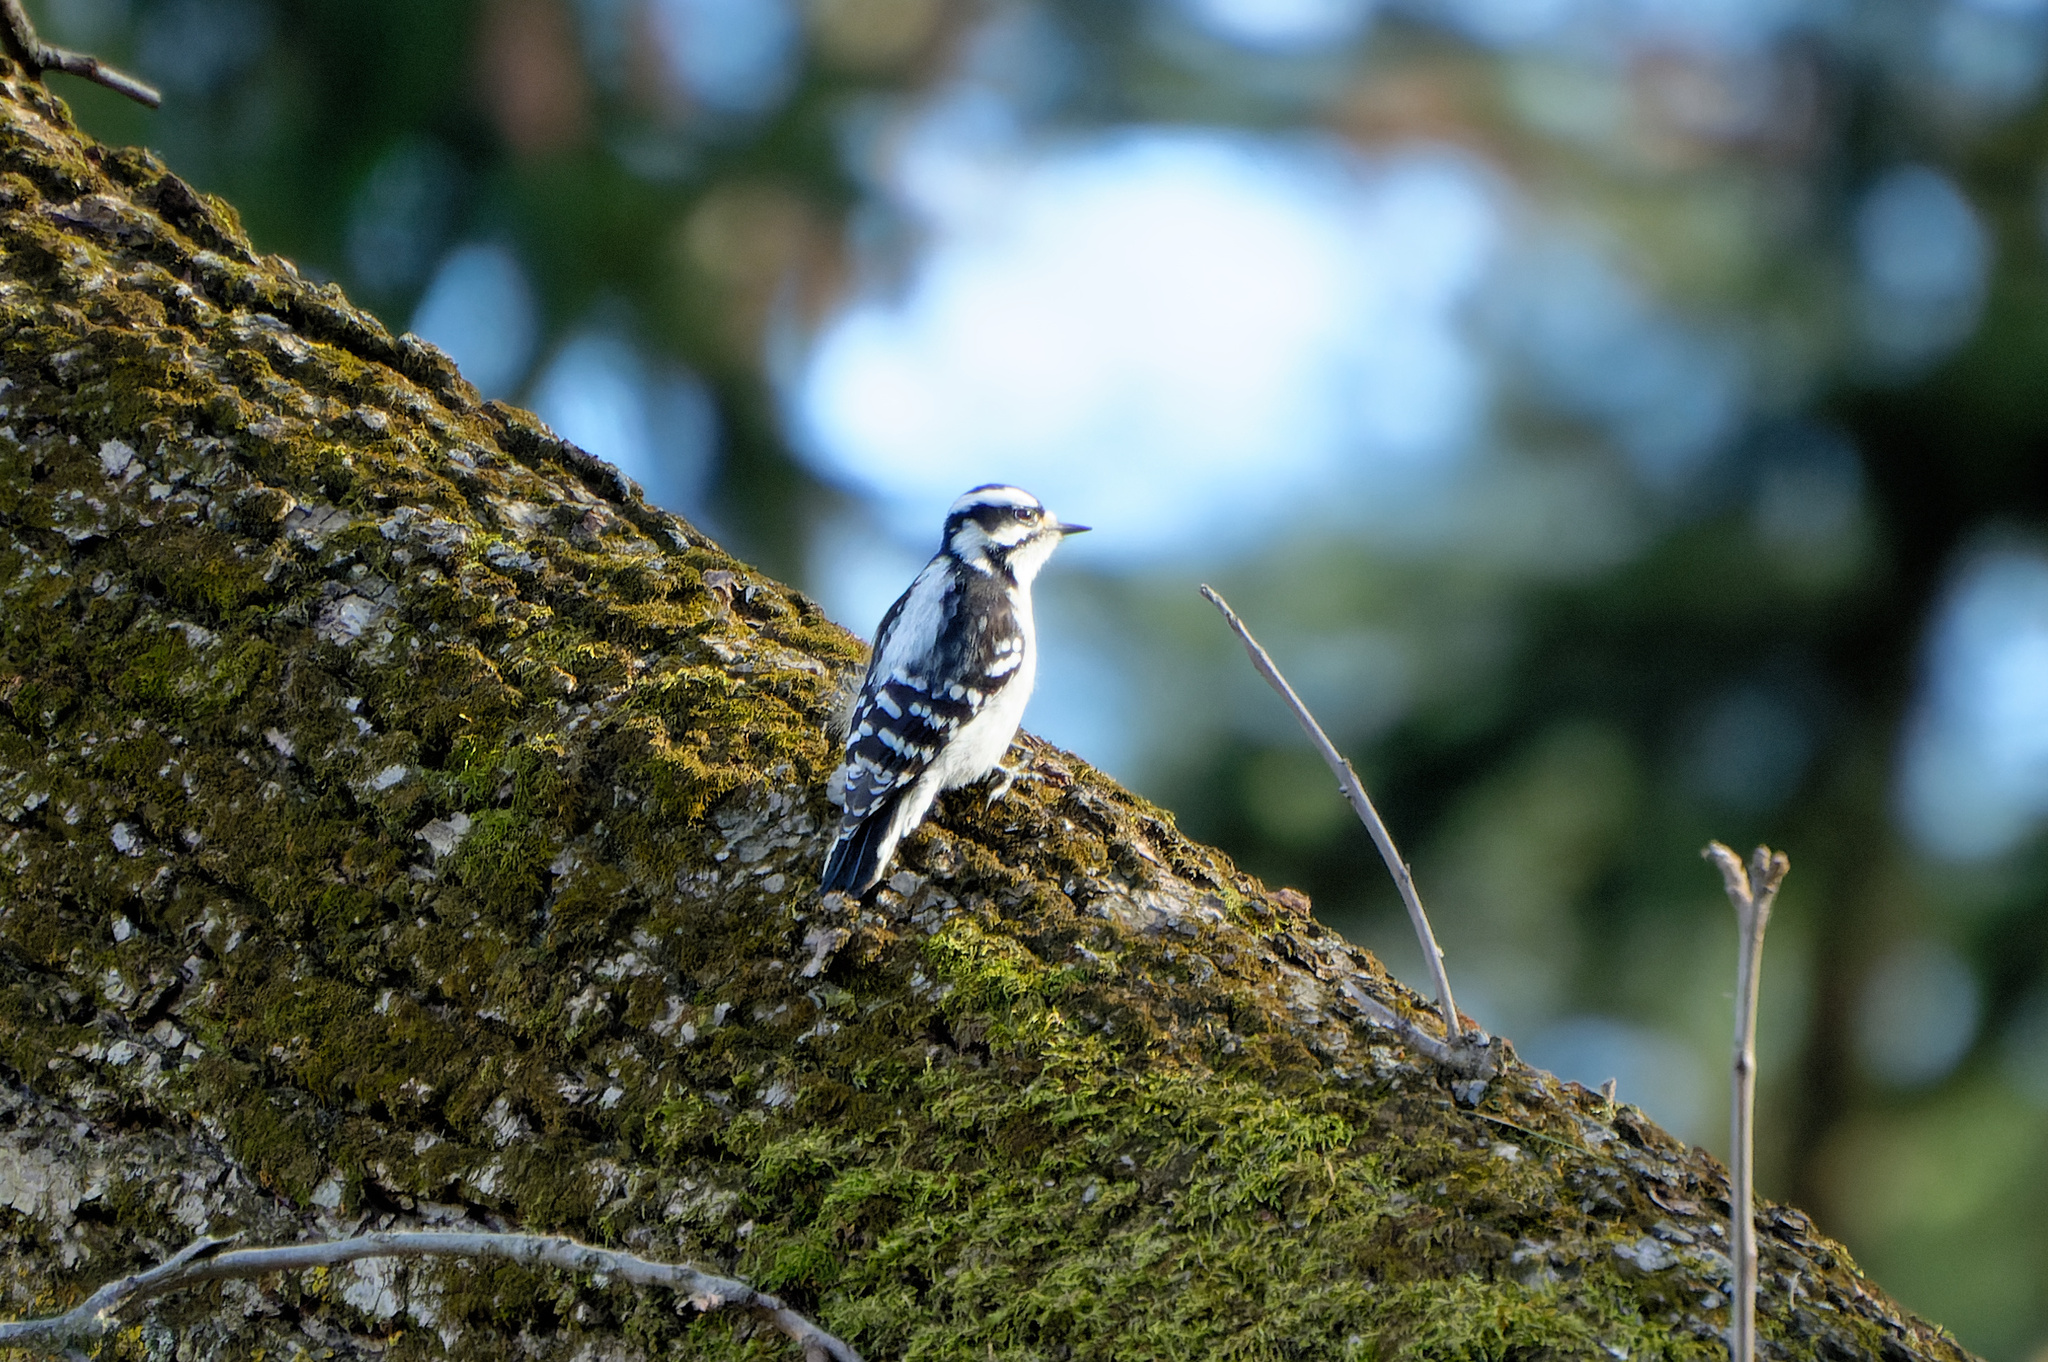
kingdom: Animalia
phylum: Chordata
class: Aves
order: Piciformes
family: Picidae
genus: Dryobates
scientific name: Dryobates pubescens
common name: Downy woodpecker
